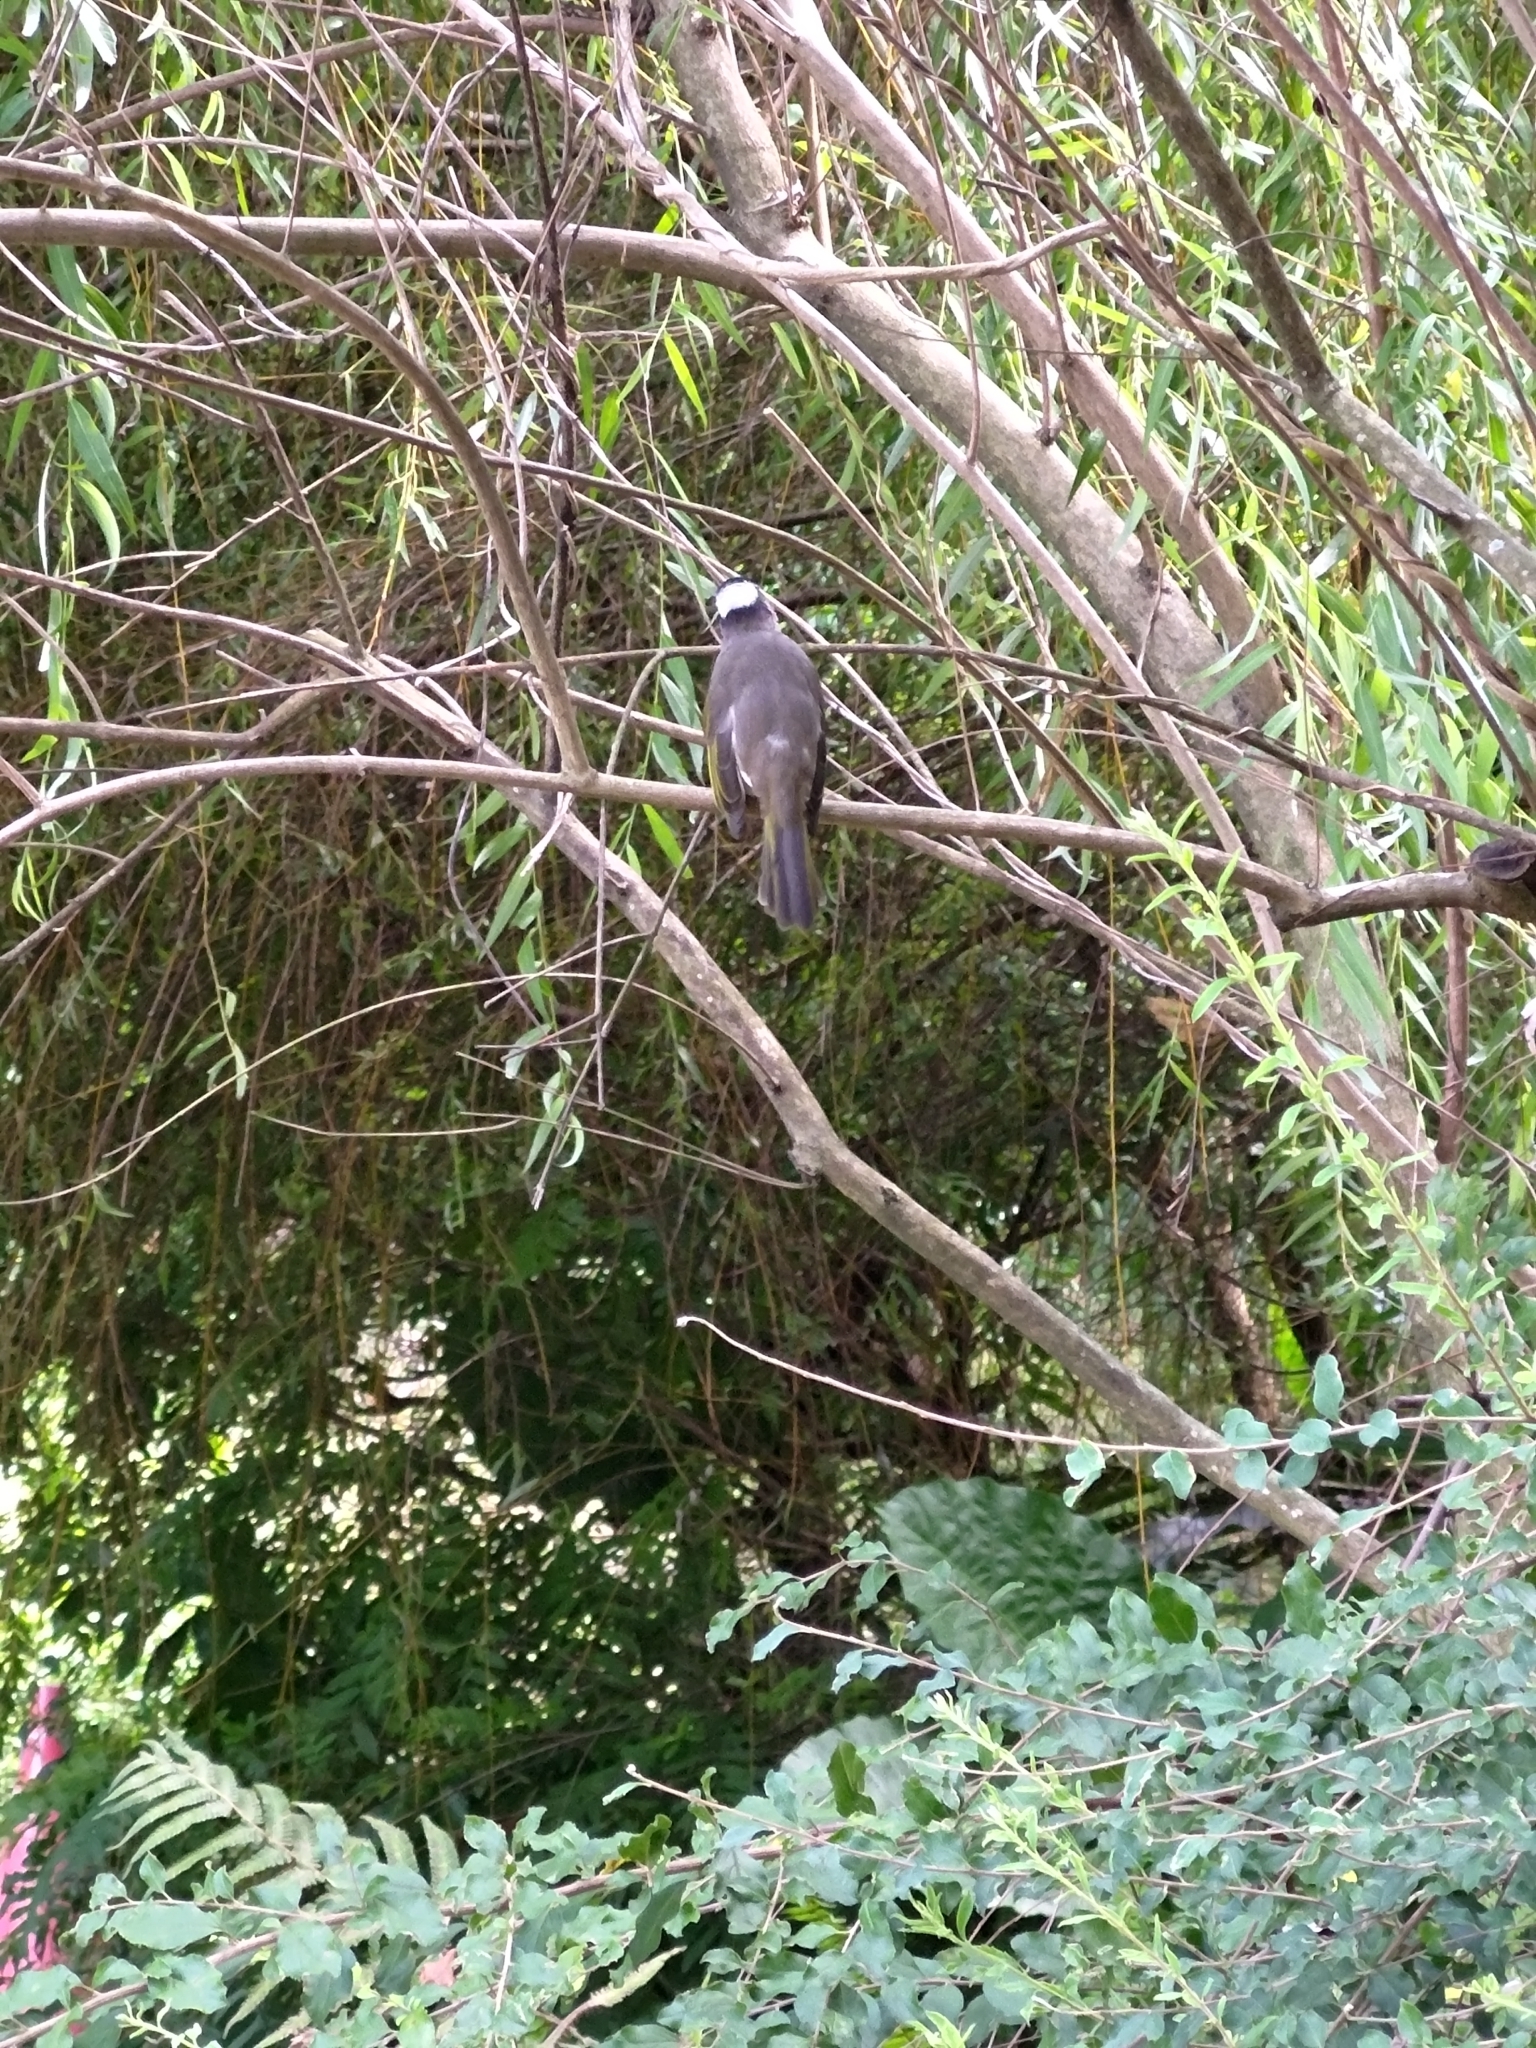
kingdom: Animalia
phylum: Chordata
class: Aves
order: Passeriformes
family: Pycnonotidae
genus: Pycnonotus
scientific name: Pycnonotus sinensis
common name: Light-vented bulbul
